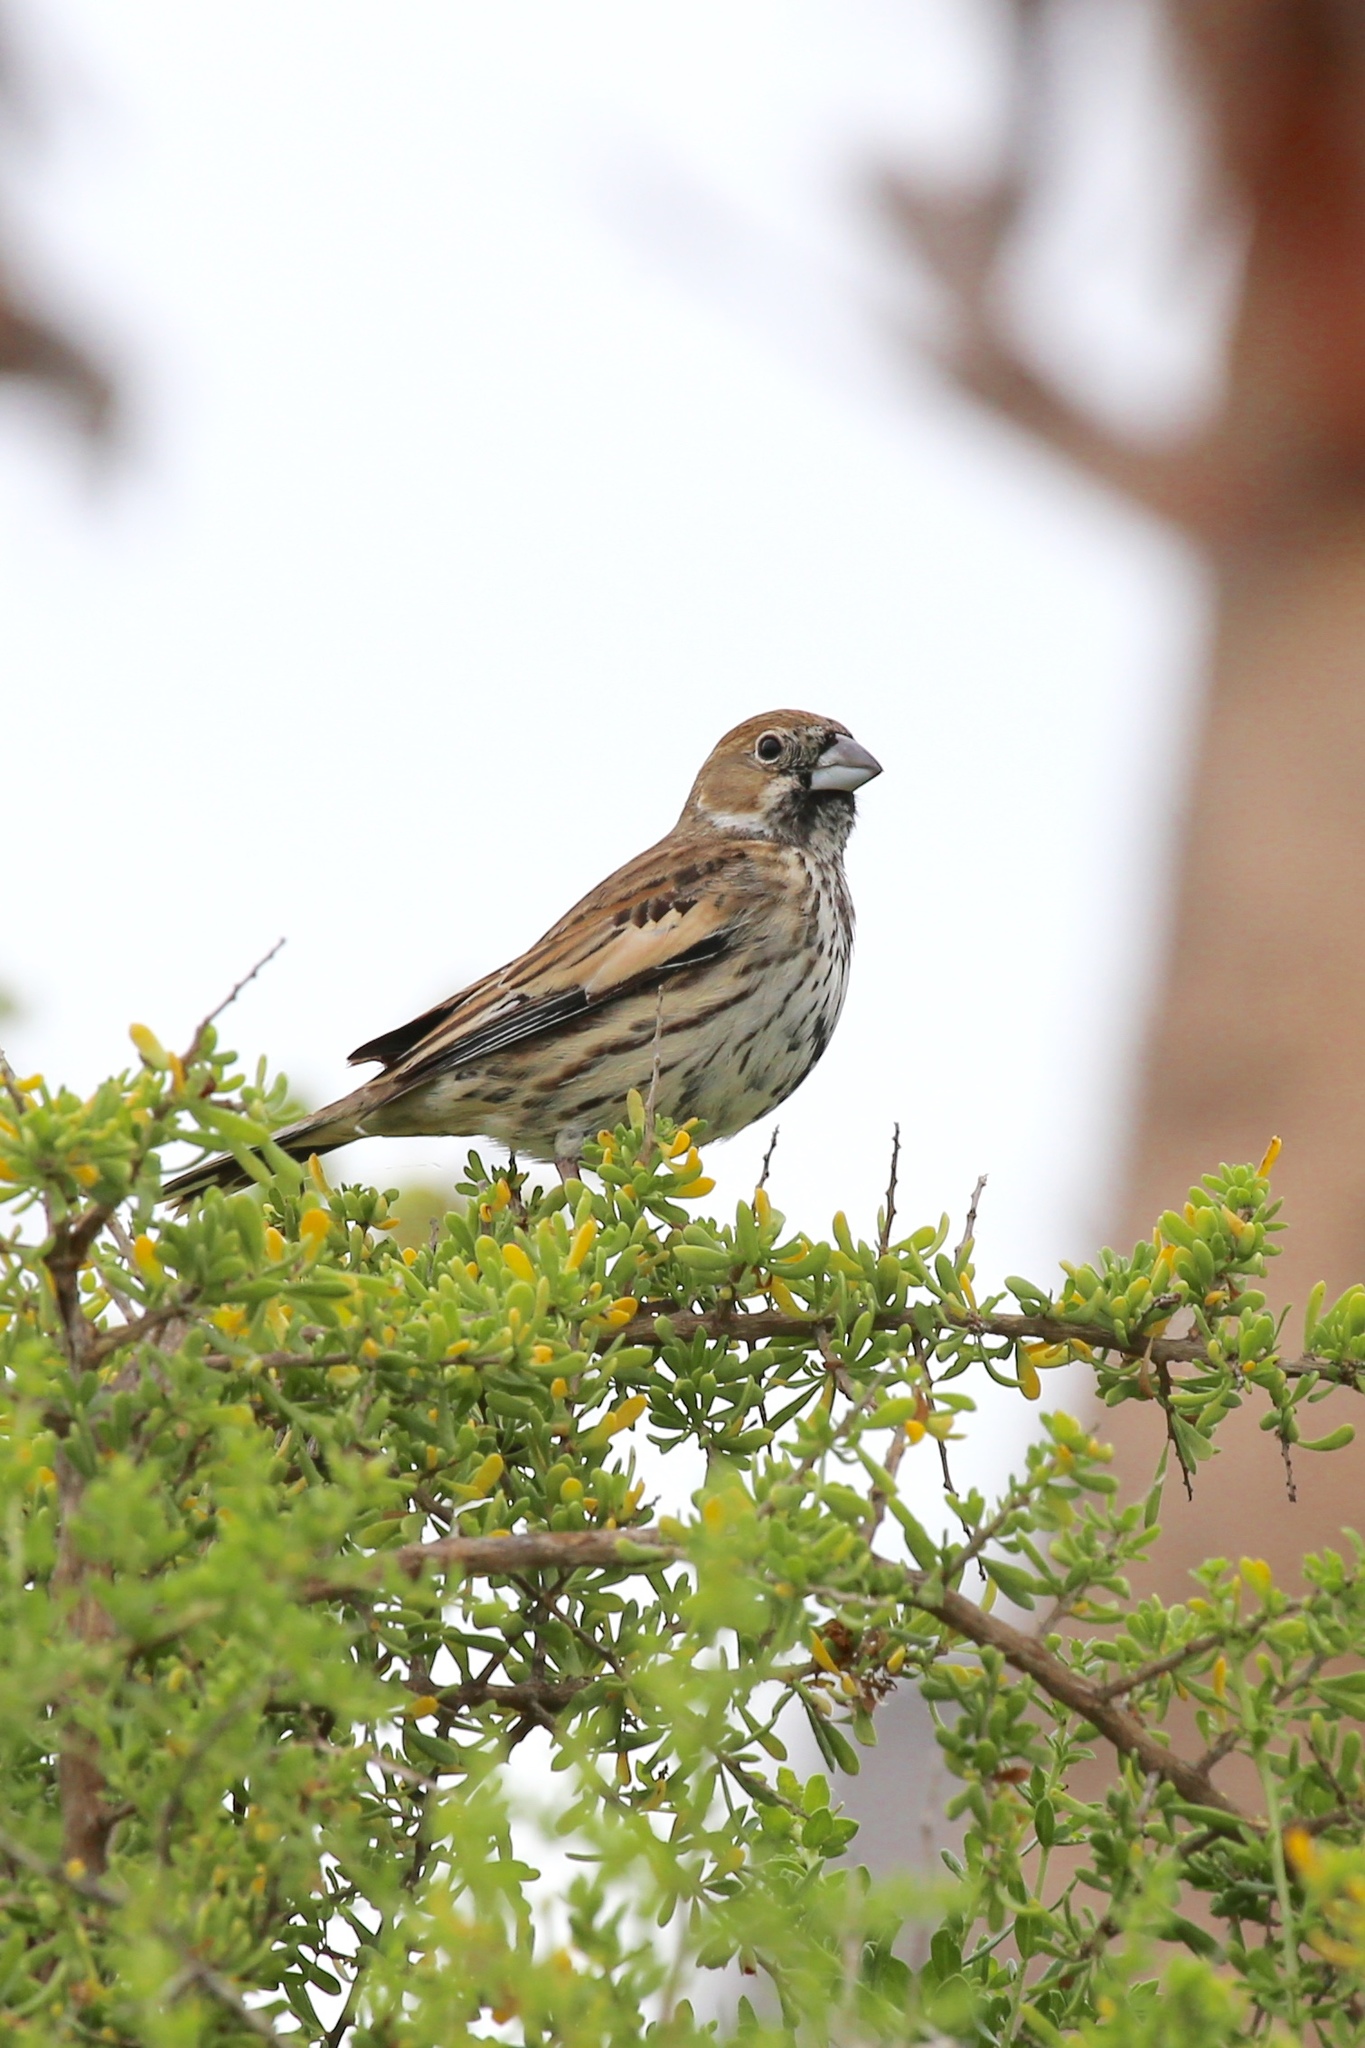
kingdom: Animalia
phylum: Chordata
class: Aves
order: Passeriformes
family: Passerellidae
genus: Calamospiza
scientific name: Calamospiza melanocorys
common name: Lark bunting
